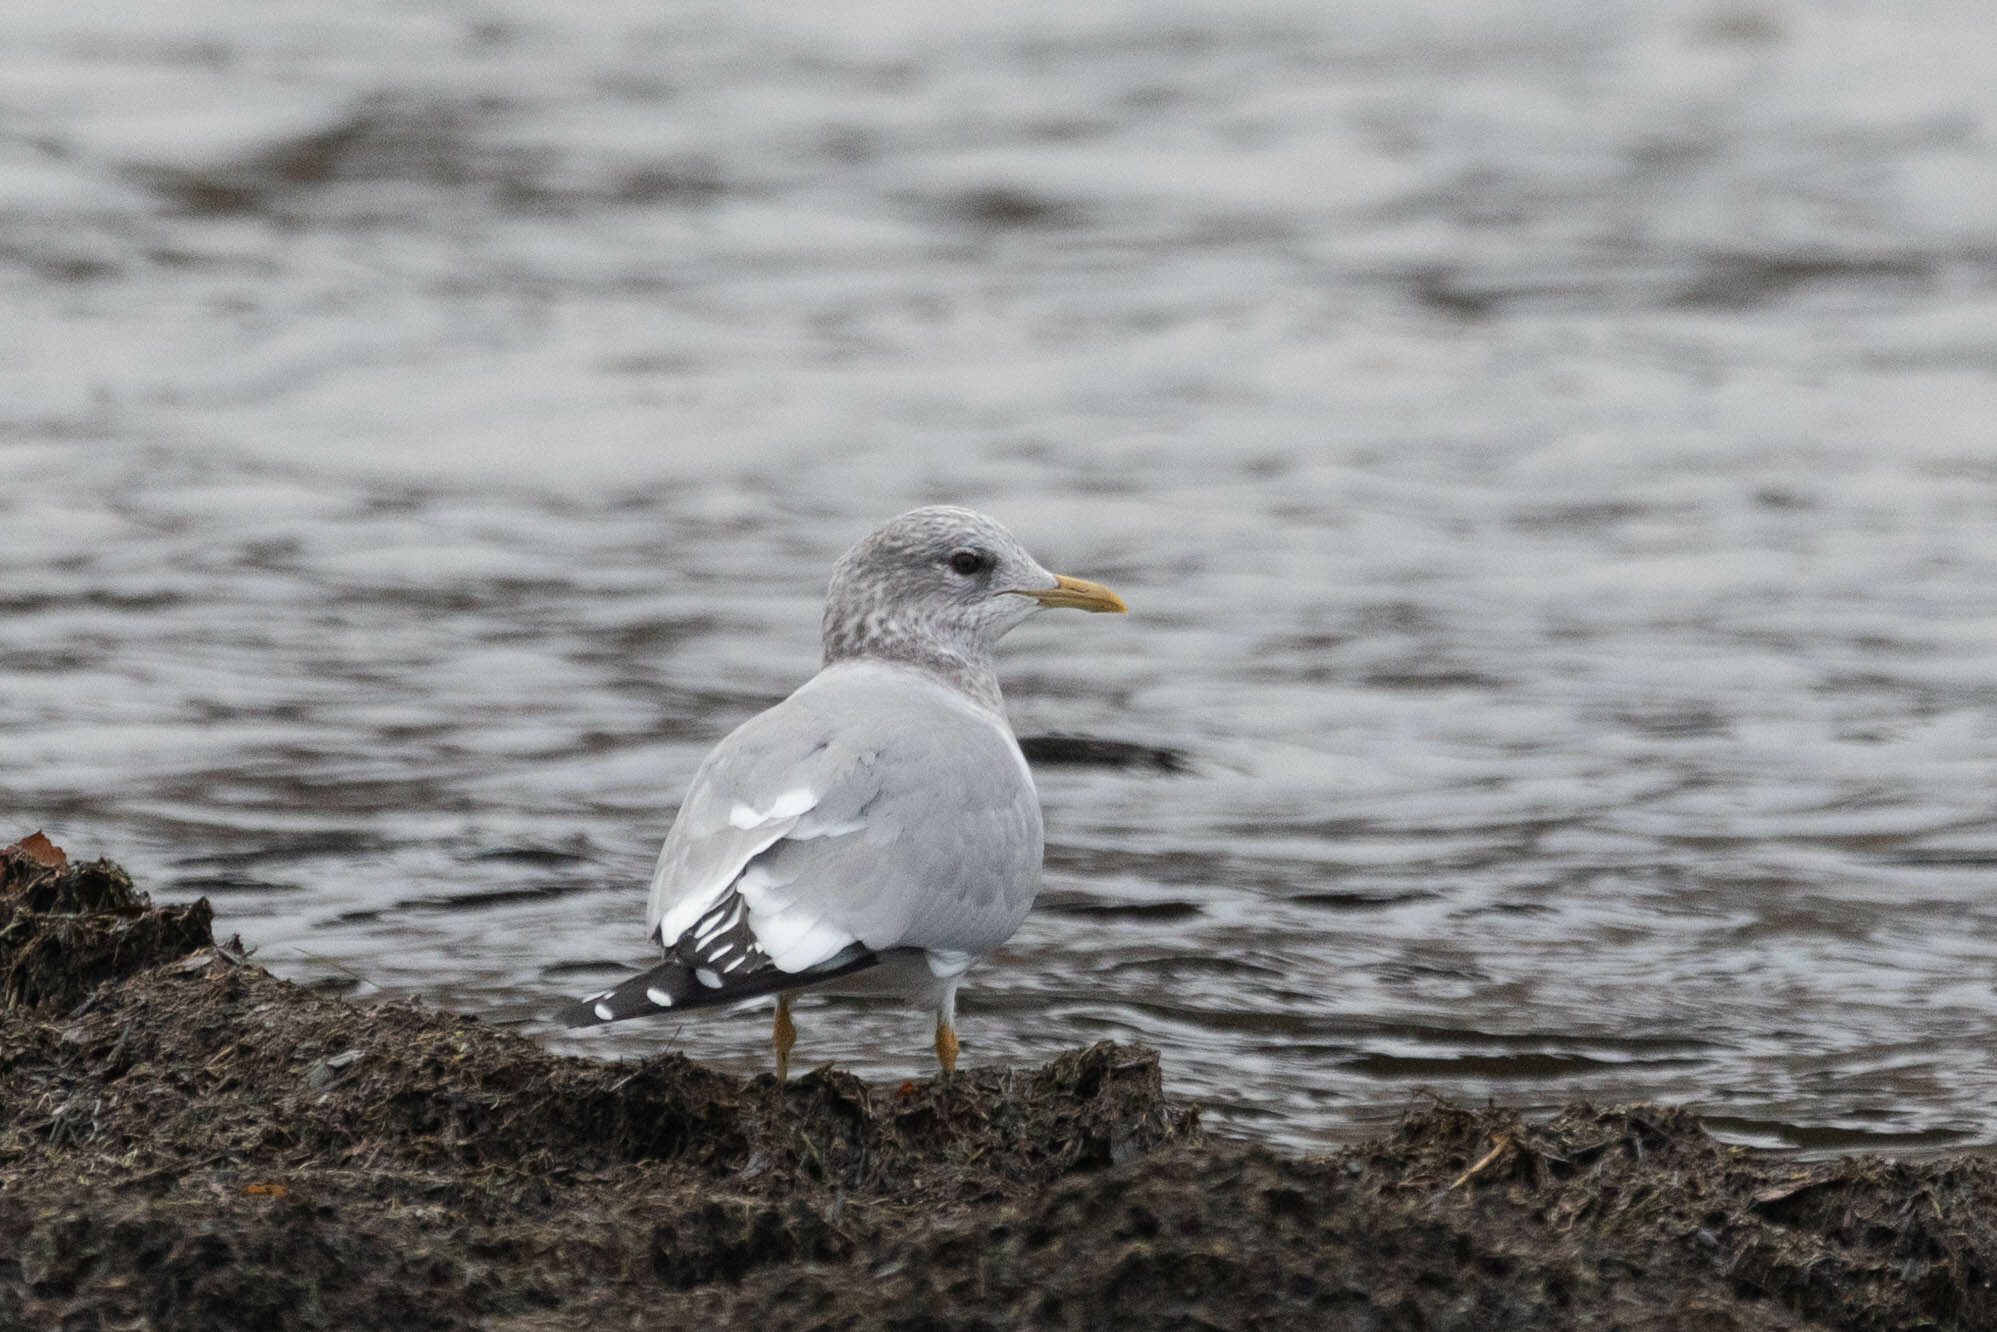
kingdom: Animalia
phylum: Chordata
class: Aves
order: Charadriiformes
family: Laridae
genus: Larus
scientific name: Larus brachyrhynchus
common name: Short-billed gull
